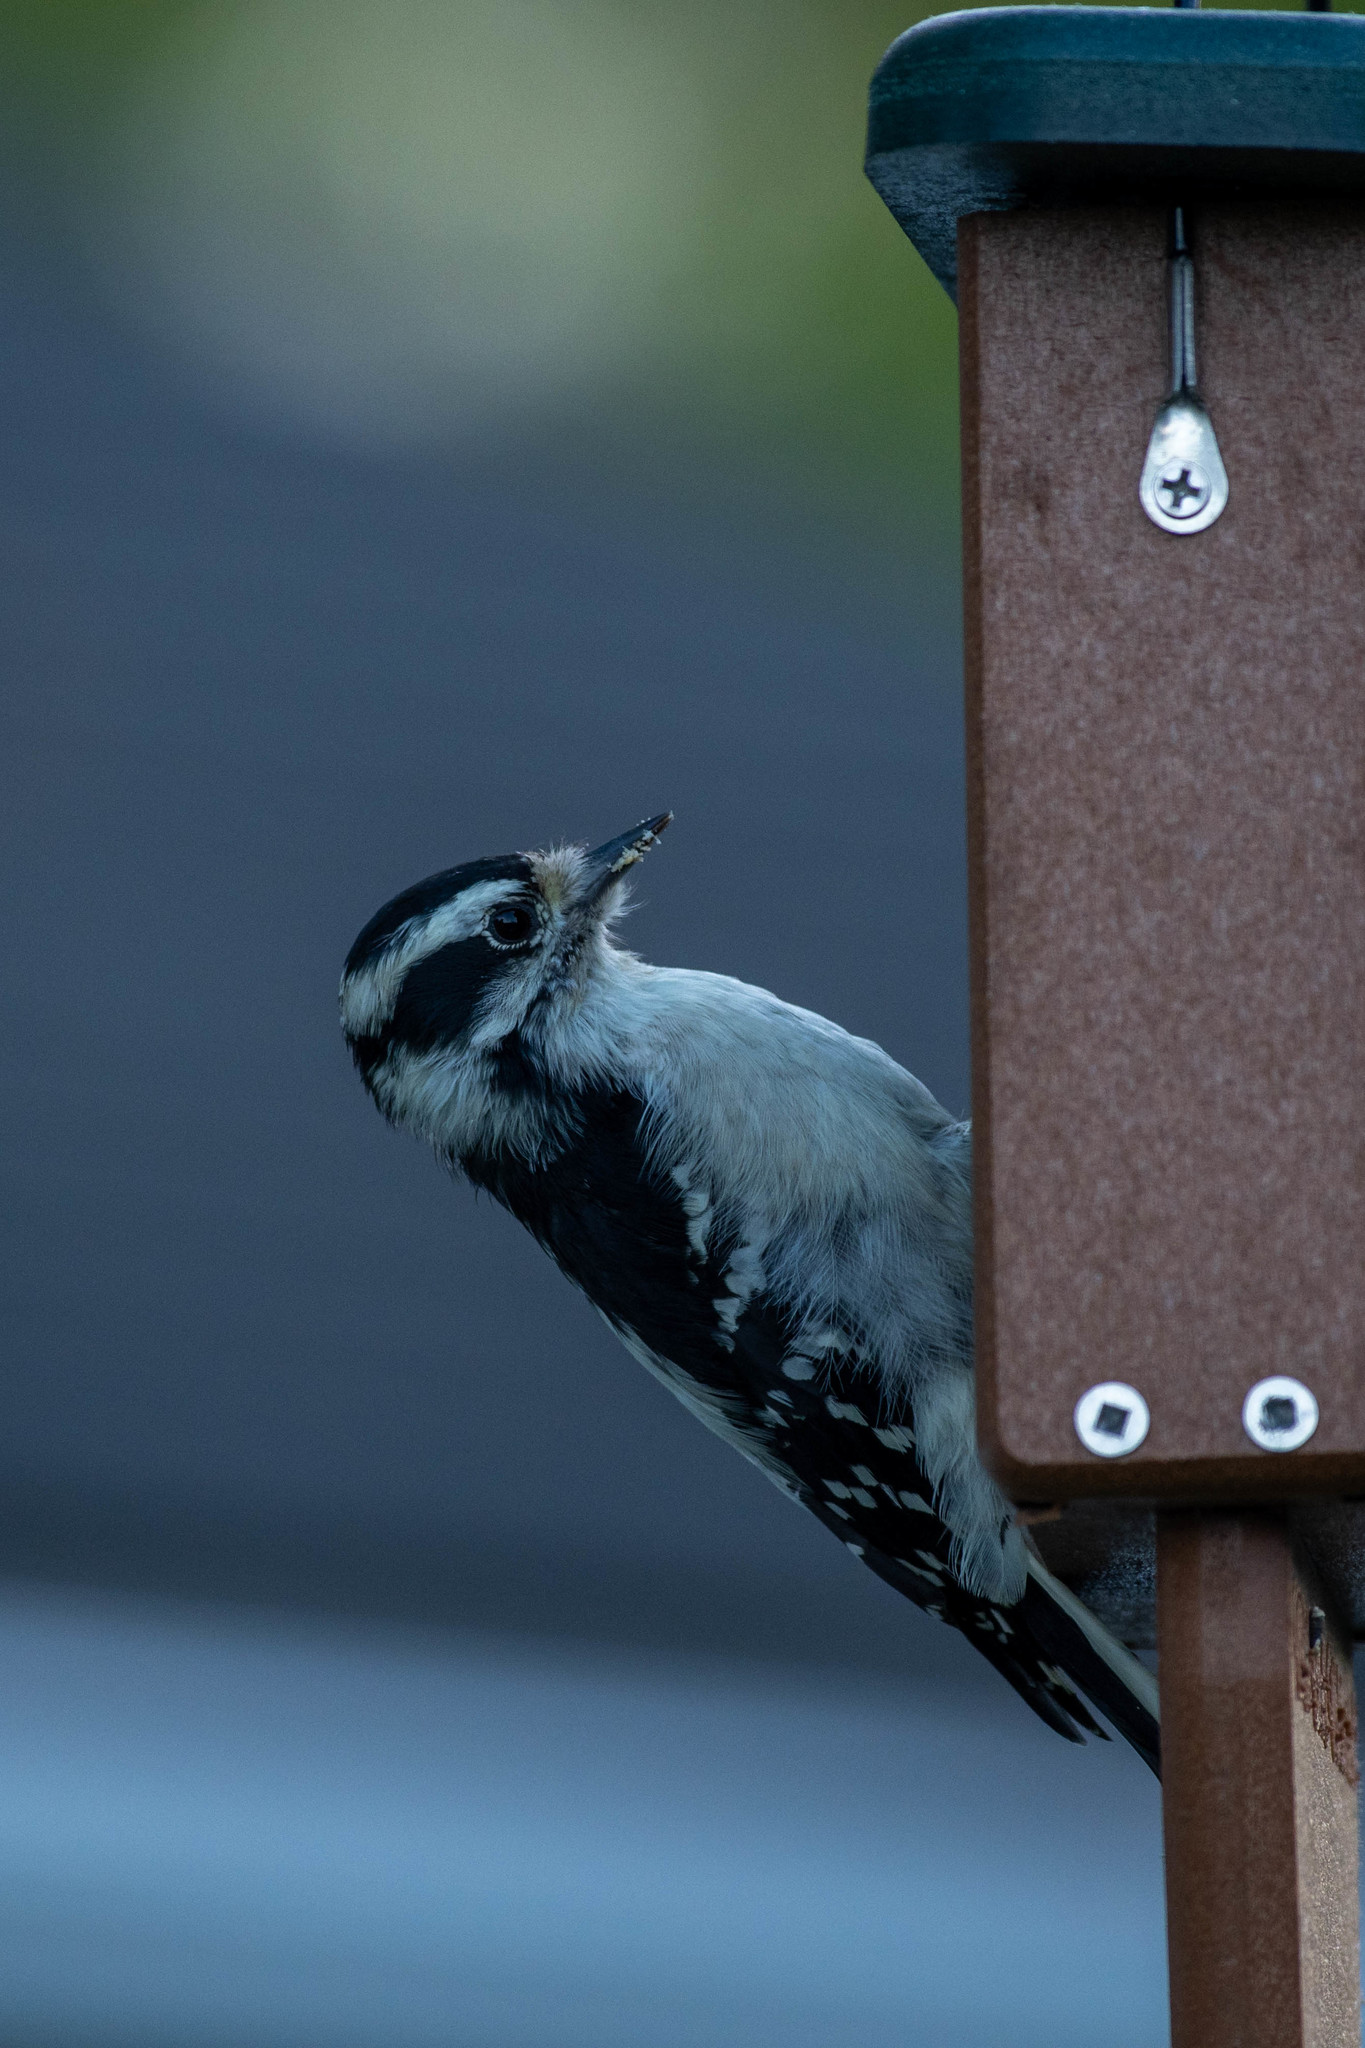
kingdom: Animalia
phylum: Chordata
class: Aves
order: Piciformes
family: Picidae
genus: Dryobates
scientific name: Dryobates pubescens
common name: Downy woodpecker
